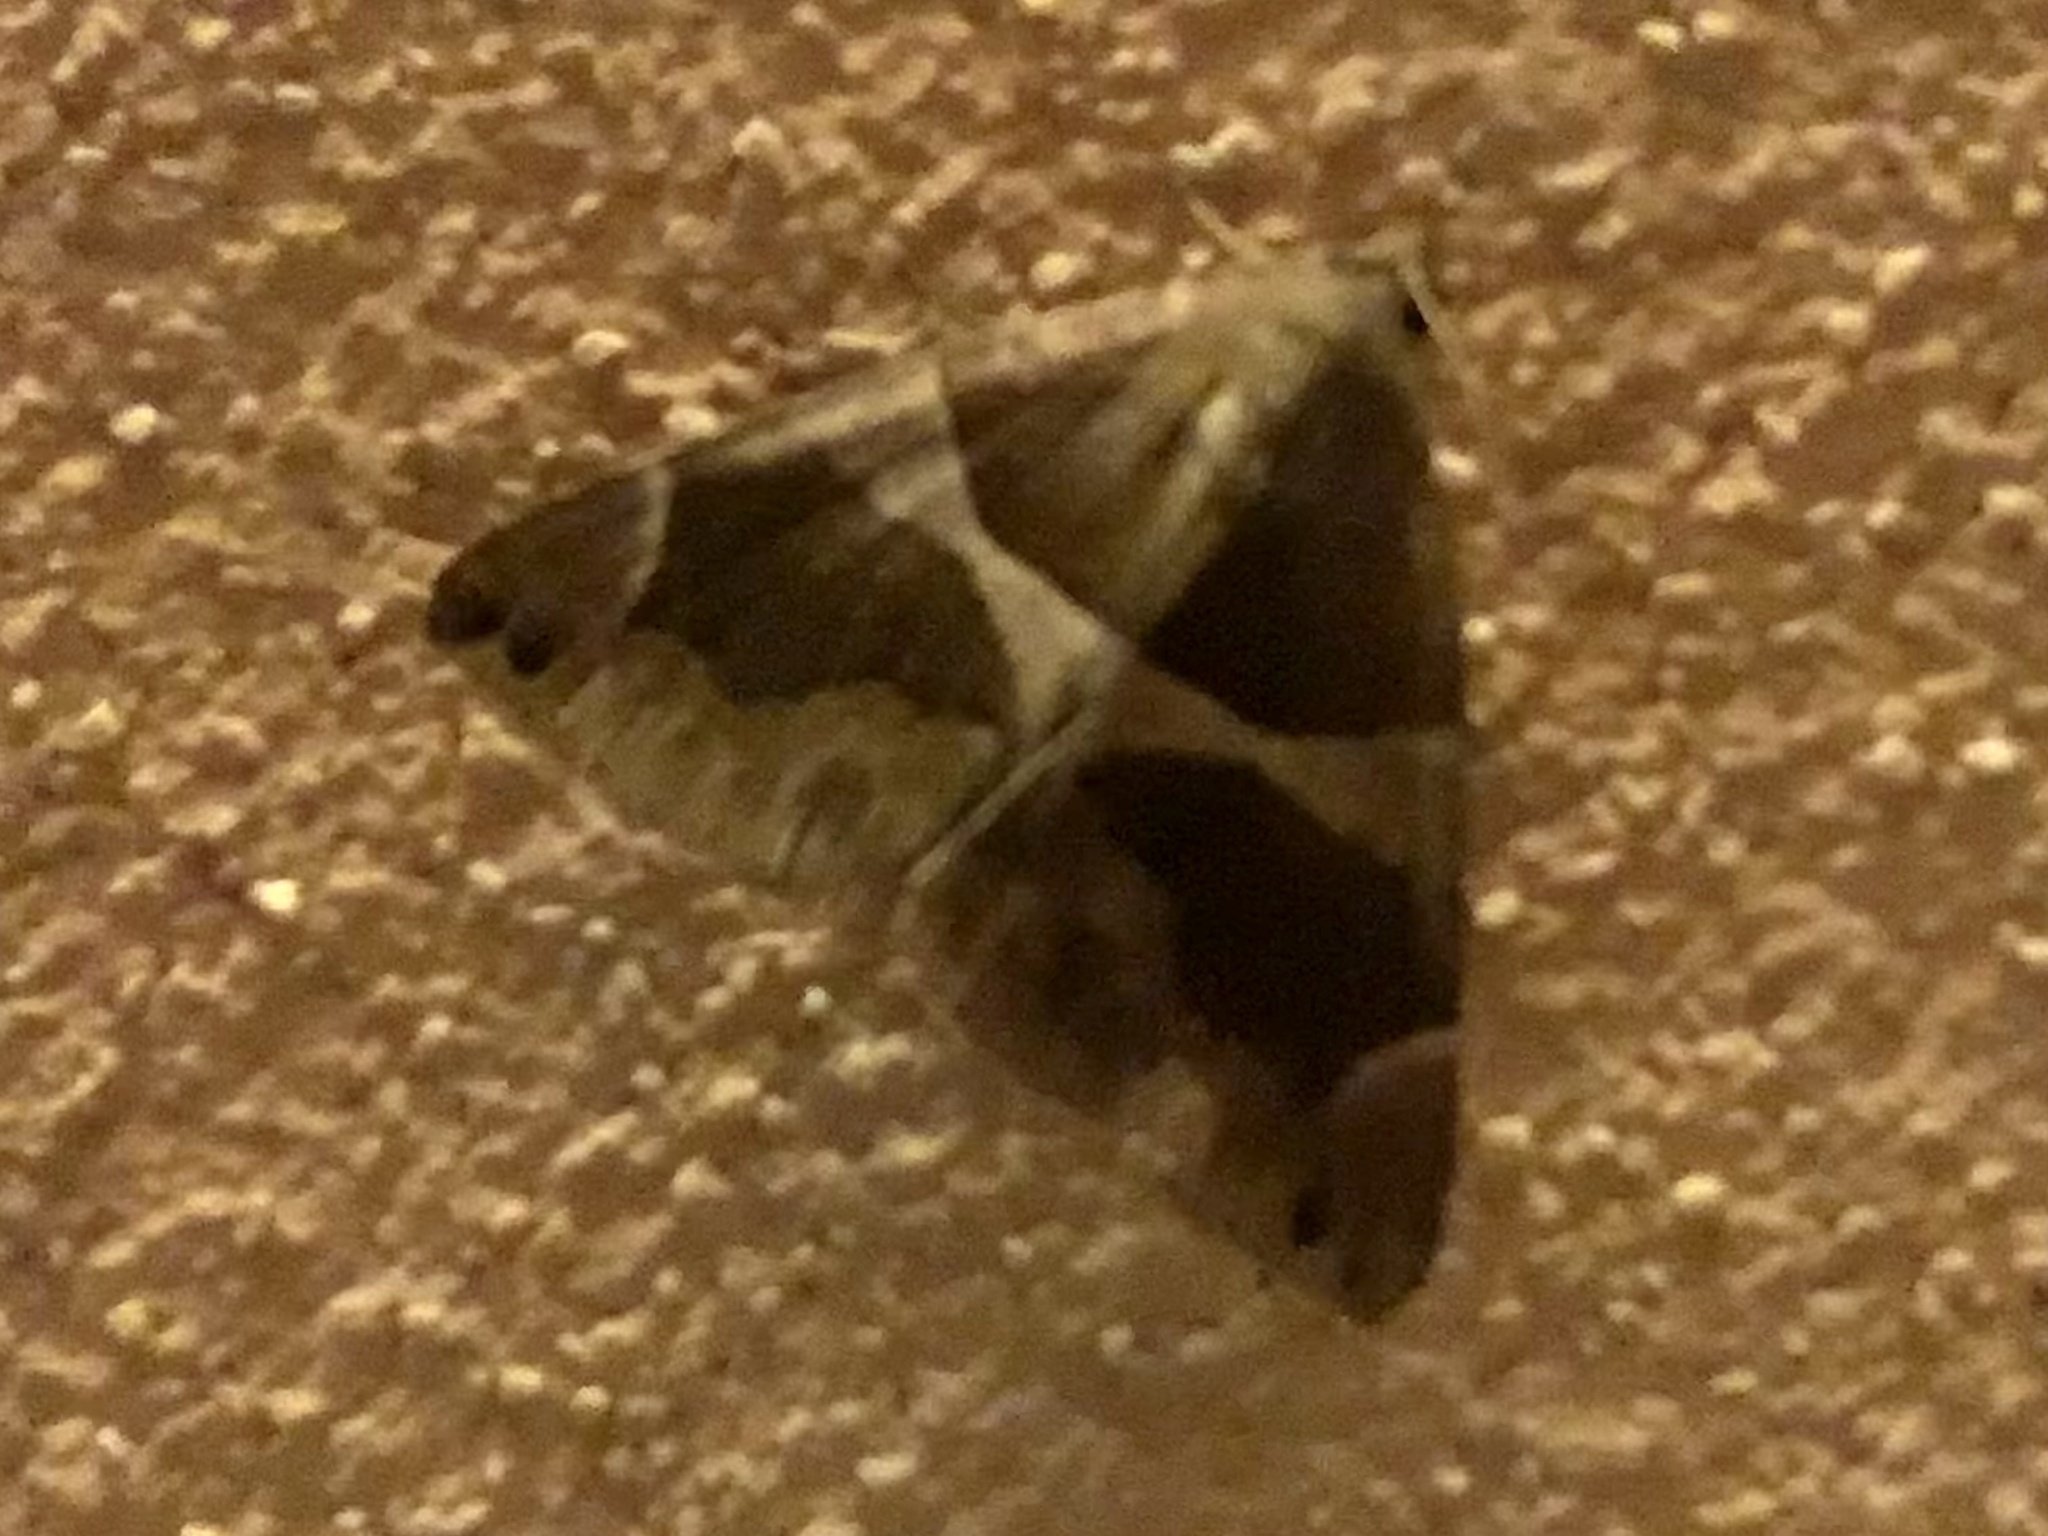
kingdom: Animalia
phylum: Arthropoda
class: Insecta
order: Lepidoptera
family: Erebidae
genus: Dysgonia
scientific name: Dysgonia algira
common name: Passenger
